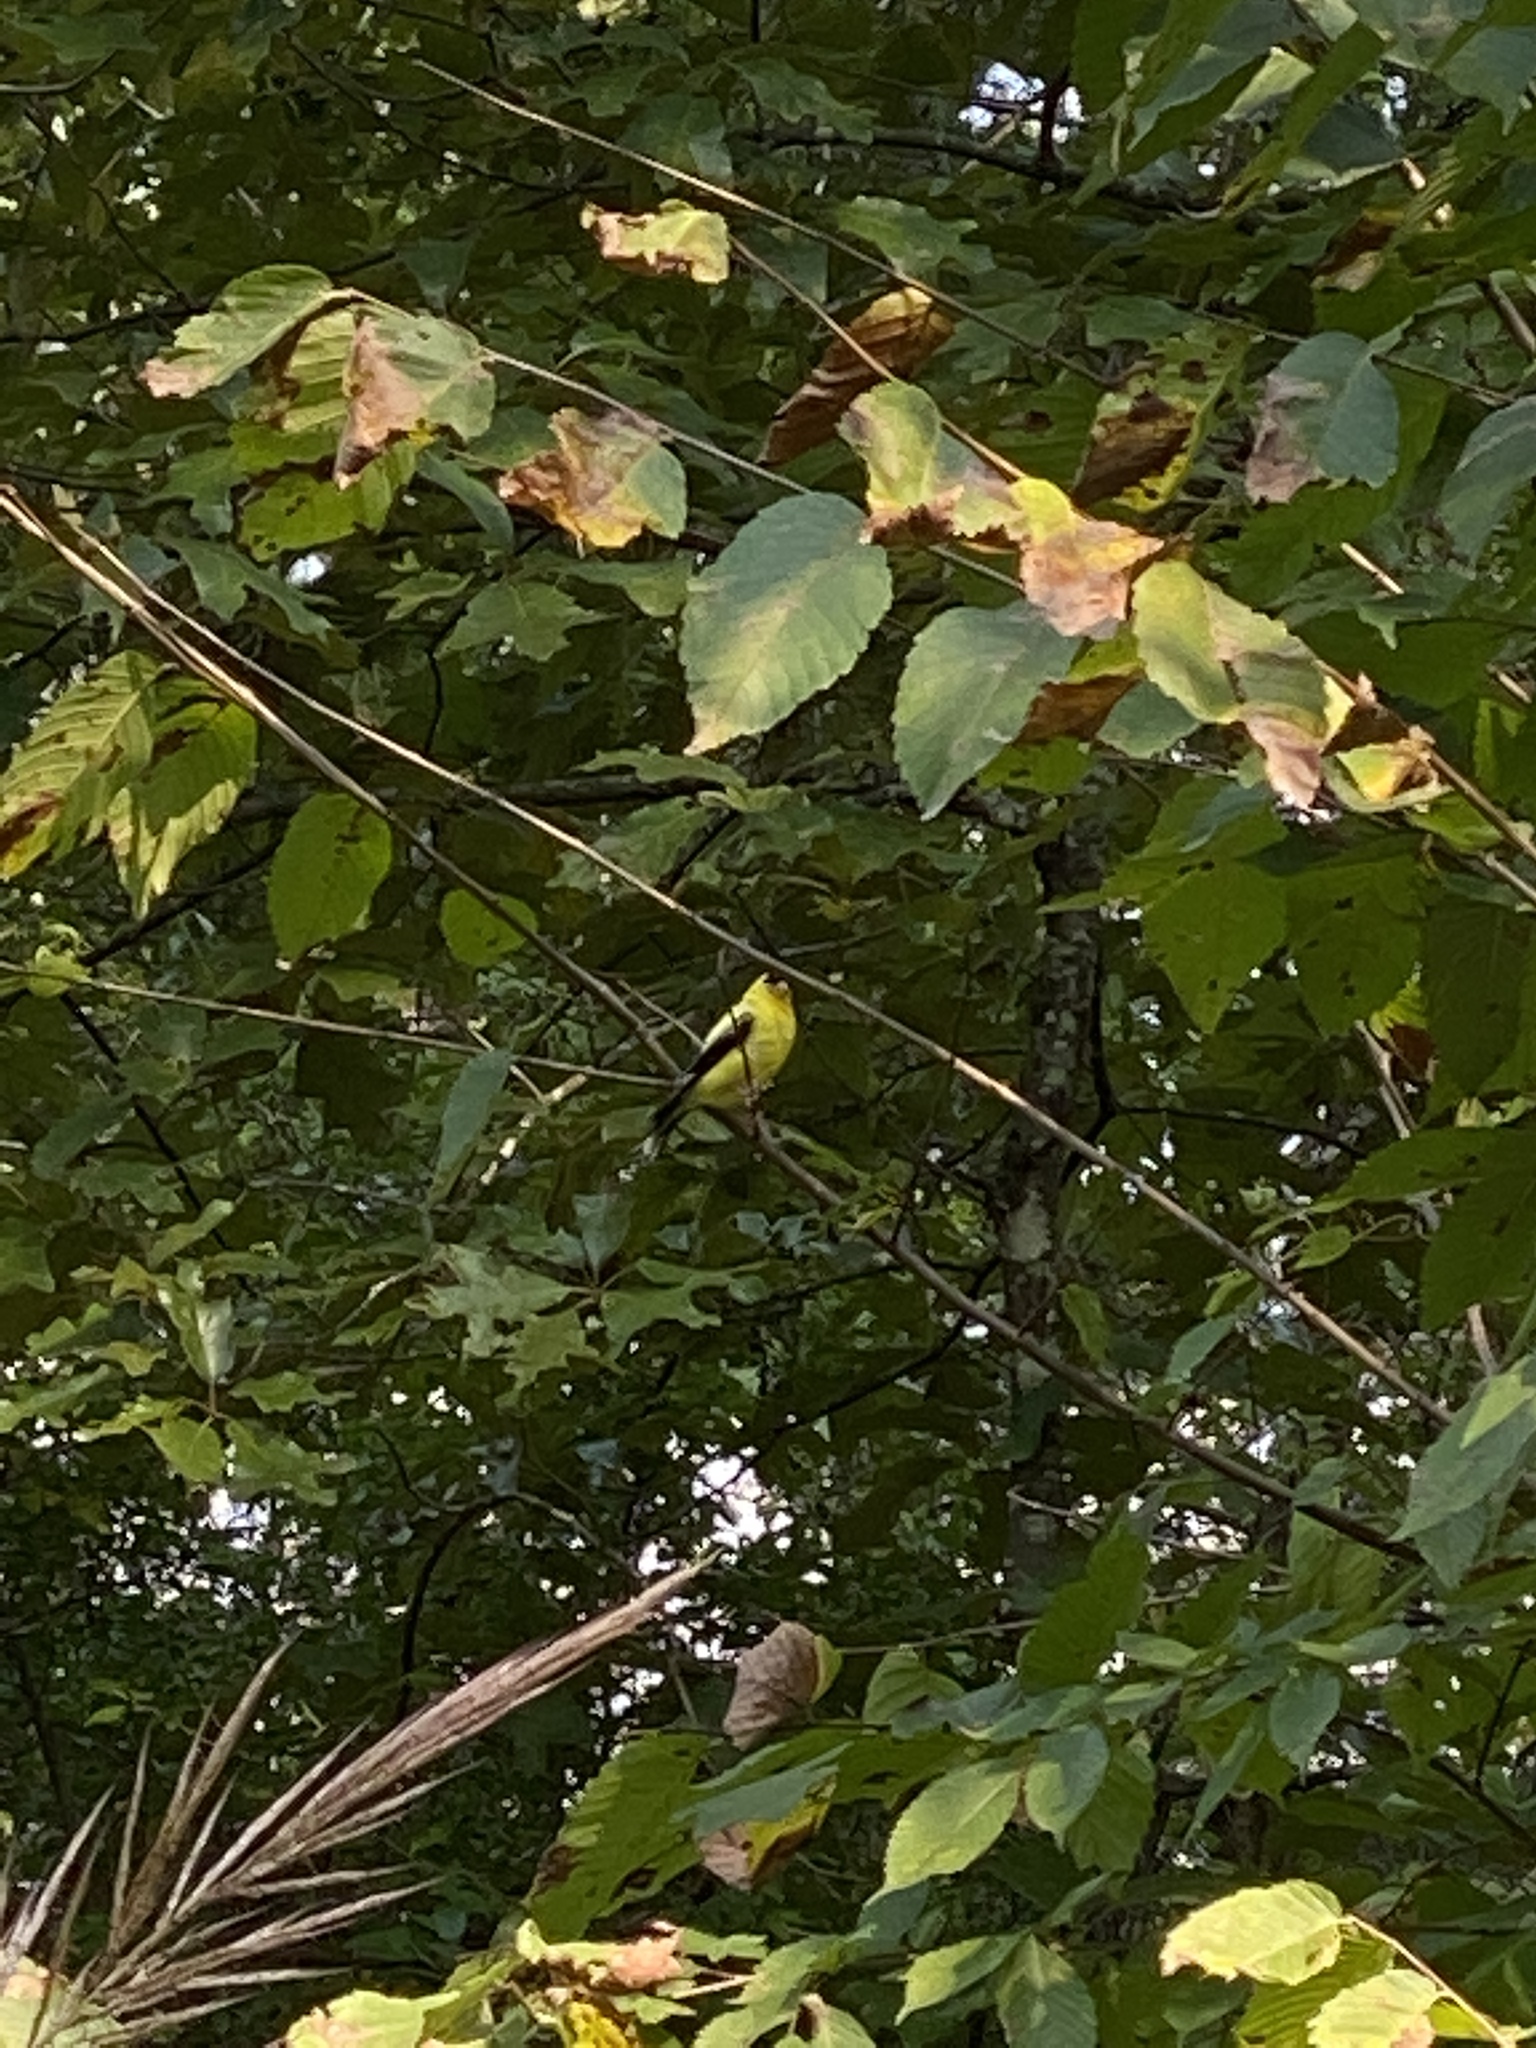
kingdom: Animalia
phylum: Chordata
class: Aves
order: Passeriformes
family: Fringillidae
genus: Spinus
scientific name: Spinus tristis
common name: American goldfinch
